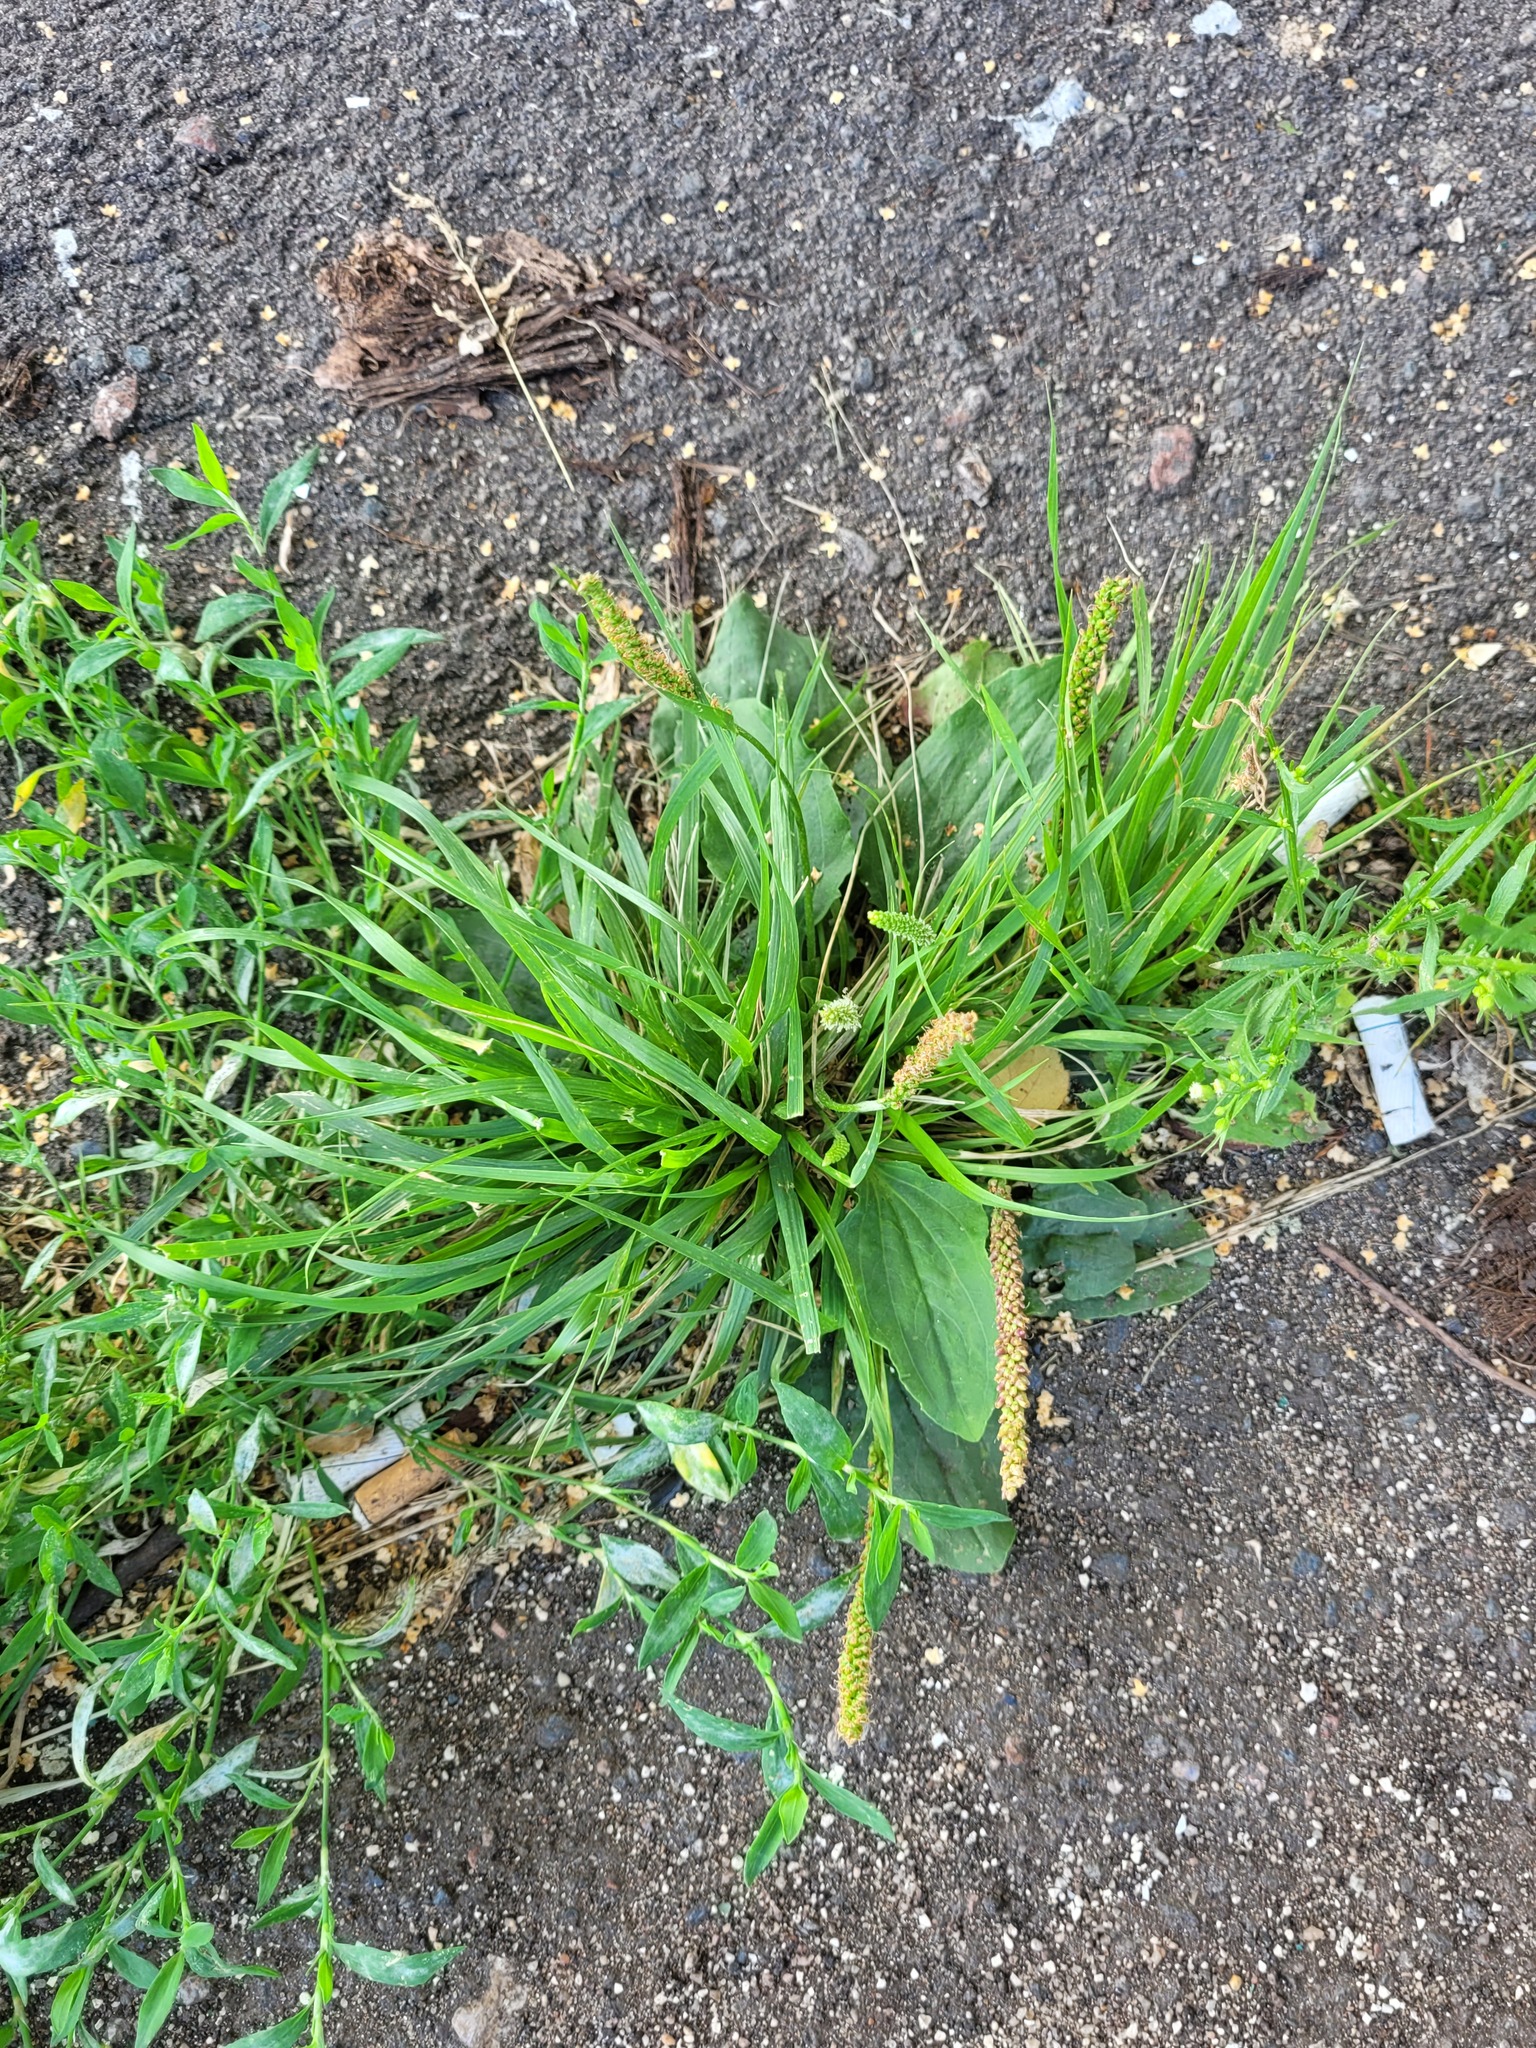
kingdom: Plantae
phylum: Tracheophyta
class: Magnoliopsida
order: Lamiales
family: Plantaginaceae
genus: Plantago
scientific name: Plantago major
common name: Common plantain
